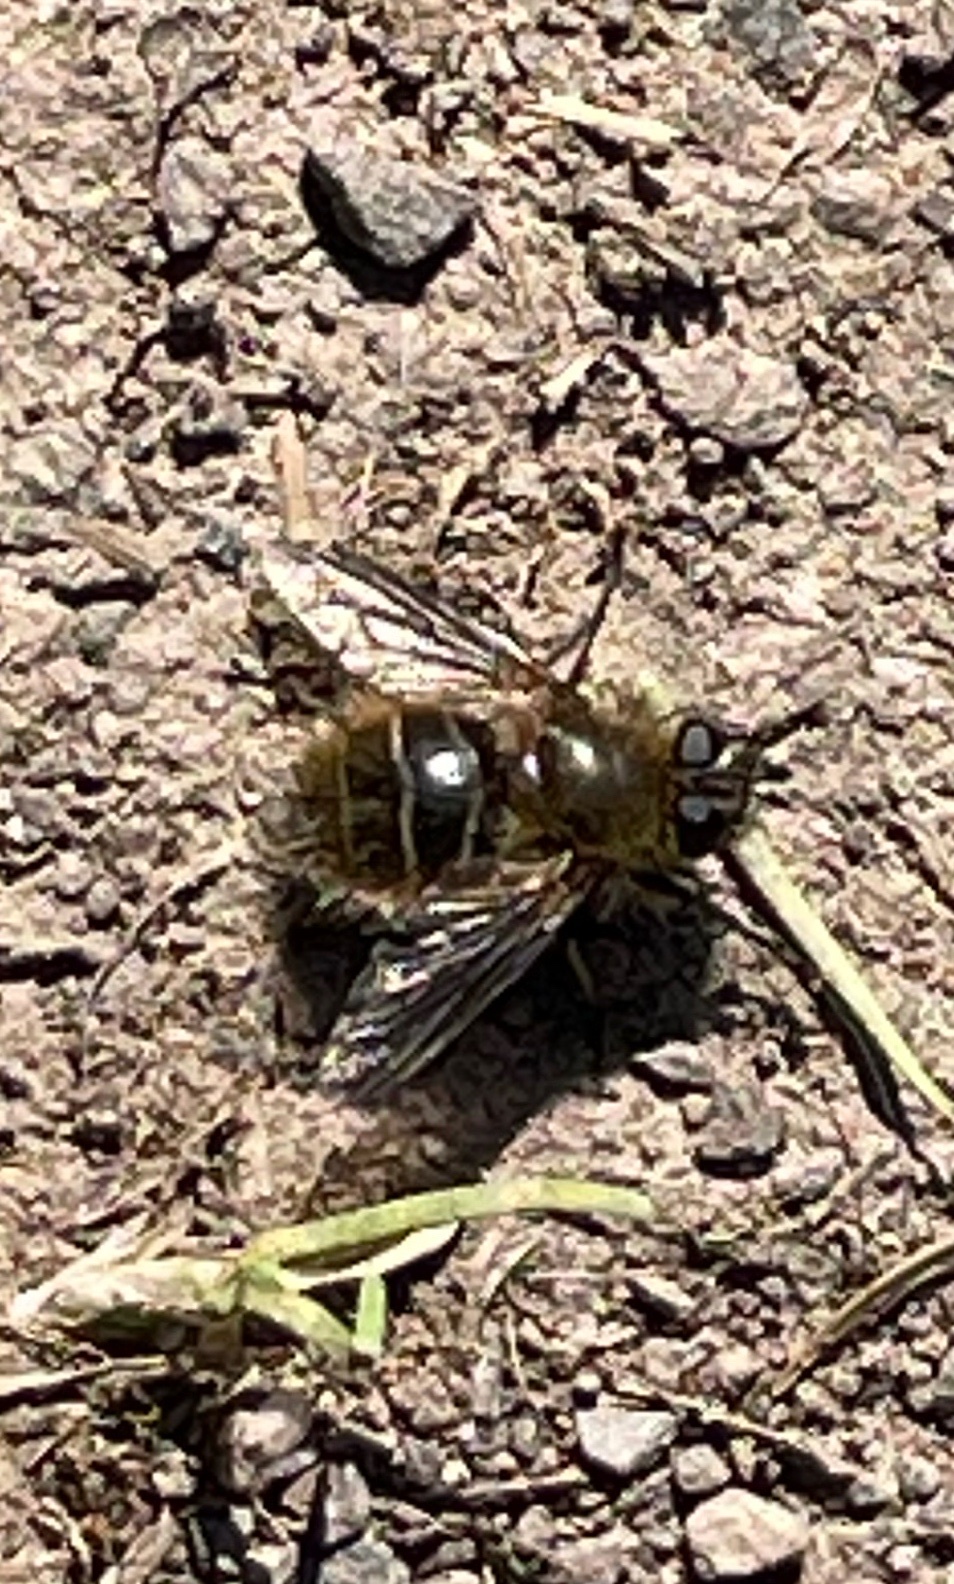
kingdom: Animalia
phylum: Arthropoda
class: Insecta
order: Diptera
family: Tachinidae
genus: Tachina
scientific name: Tachina ursina
